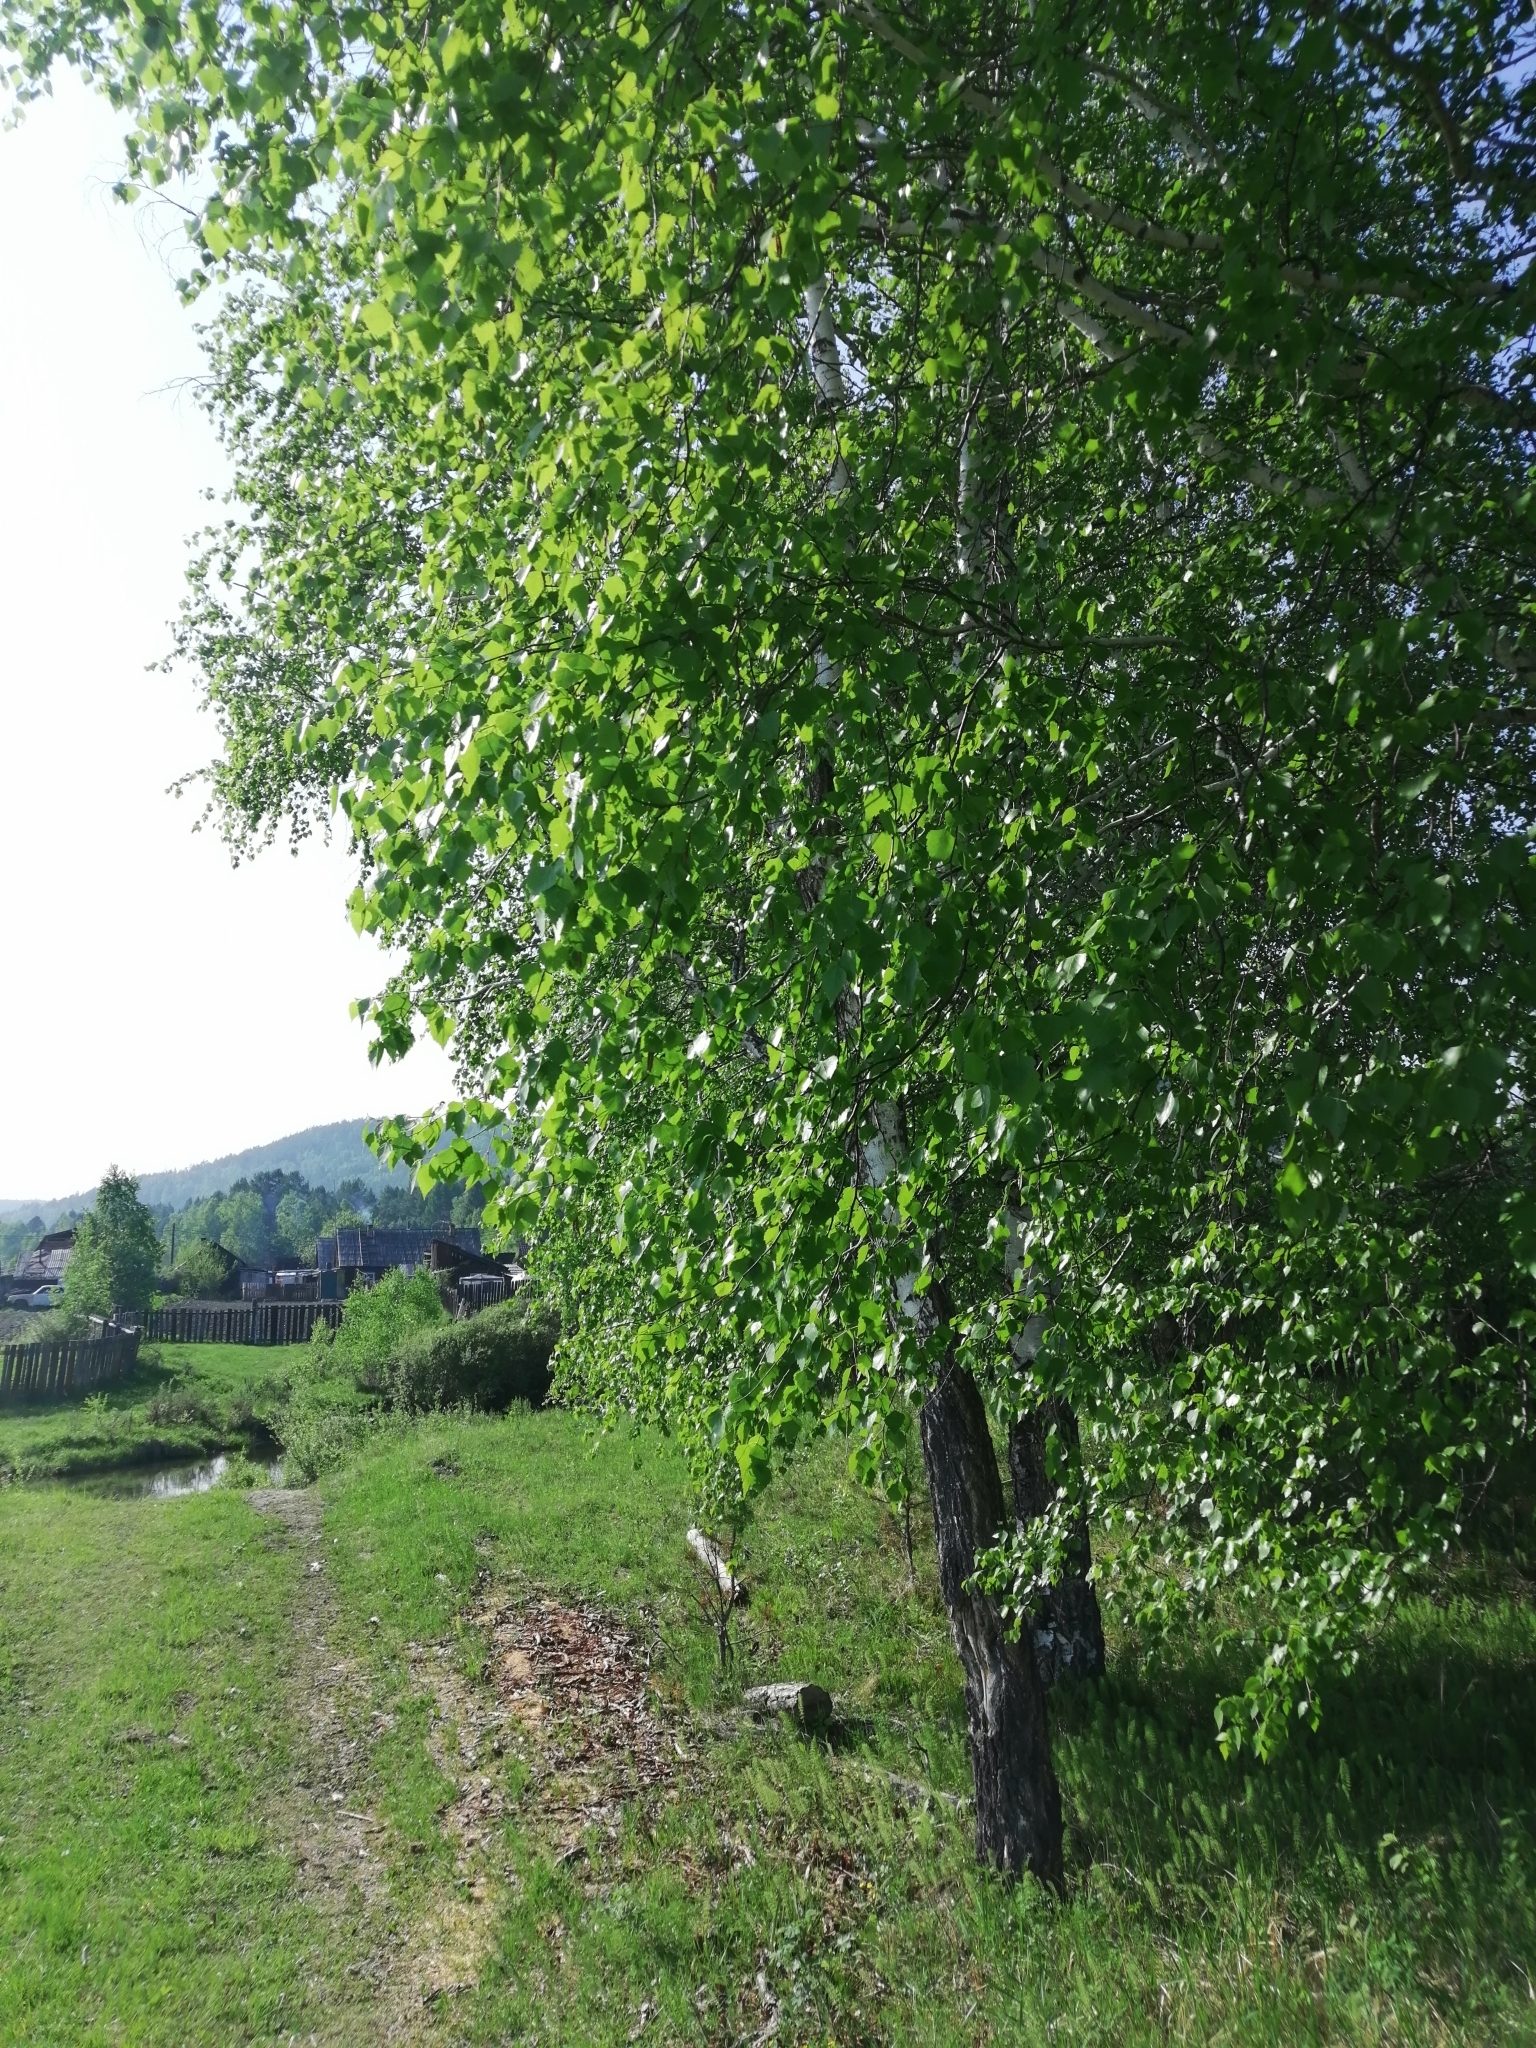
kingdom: Plantae
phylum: Tracheophyta
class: Magnoliopsida
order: Fagales
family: Betulaceae
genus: Betula
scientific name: Betula pendula
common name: Silver birch
